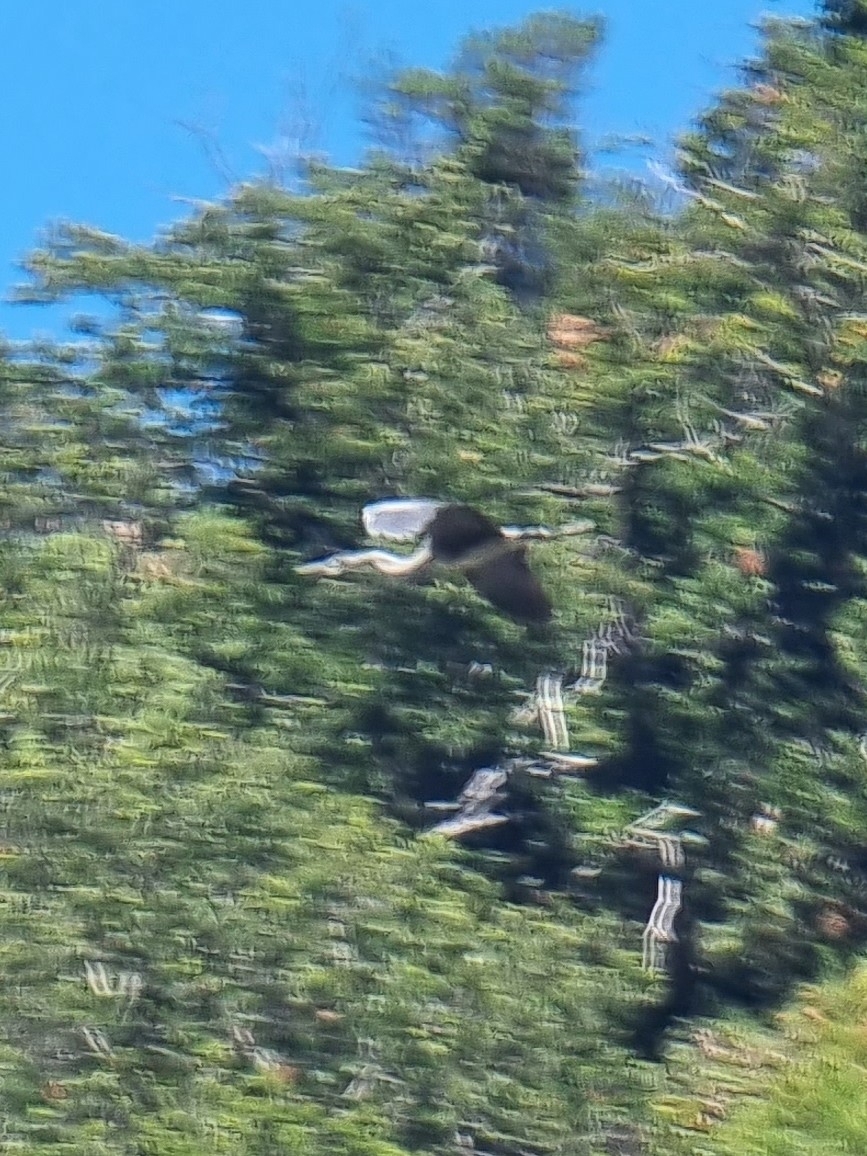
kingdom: Animalia
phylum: Chordata
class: Aves
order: Pelecaniformes
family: Ardeidae
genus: Ardea
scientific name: Ardea cinerea
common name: Grey heron
